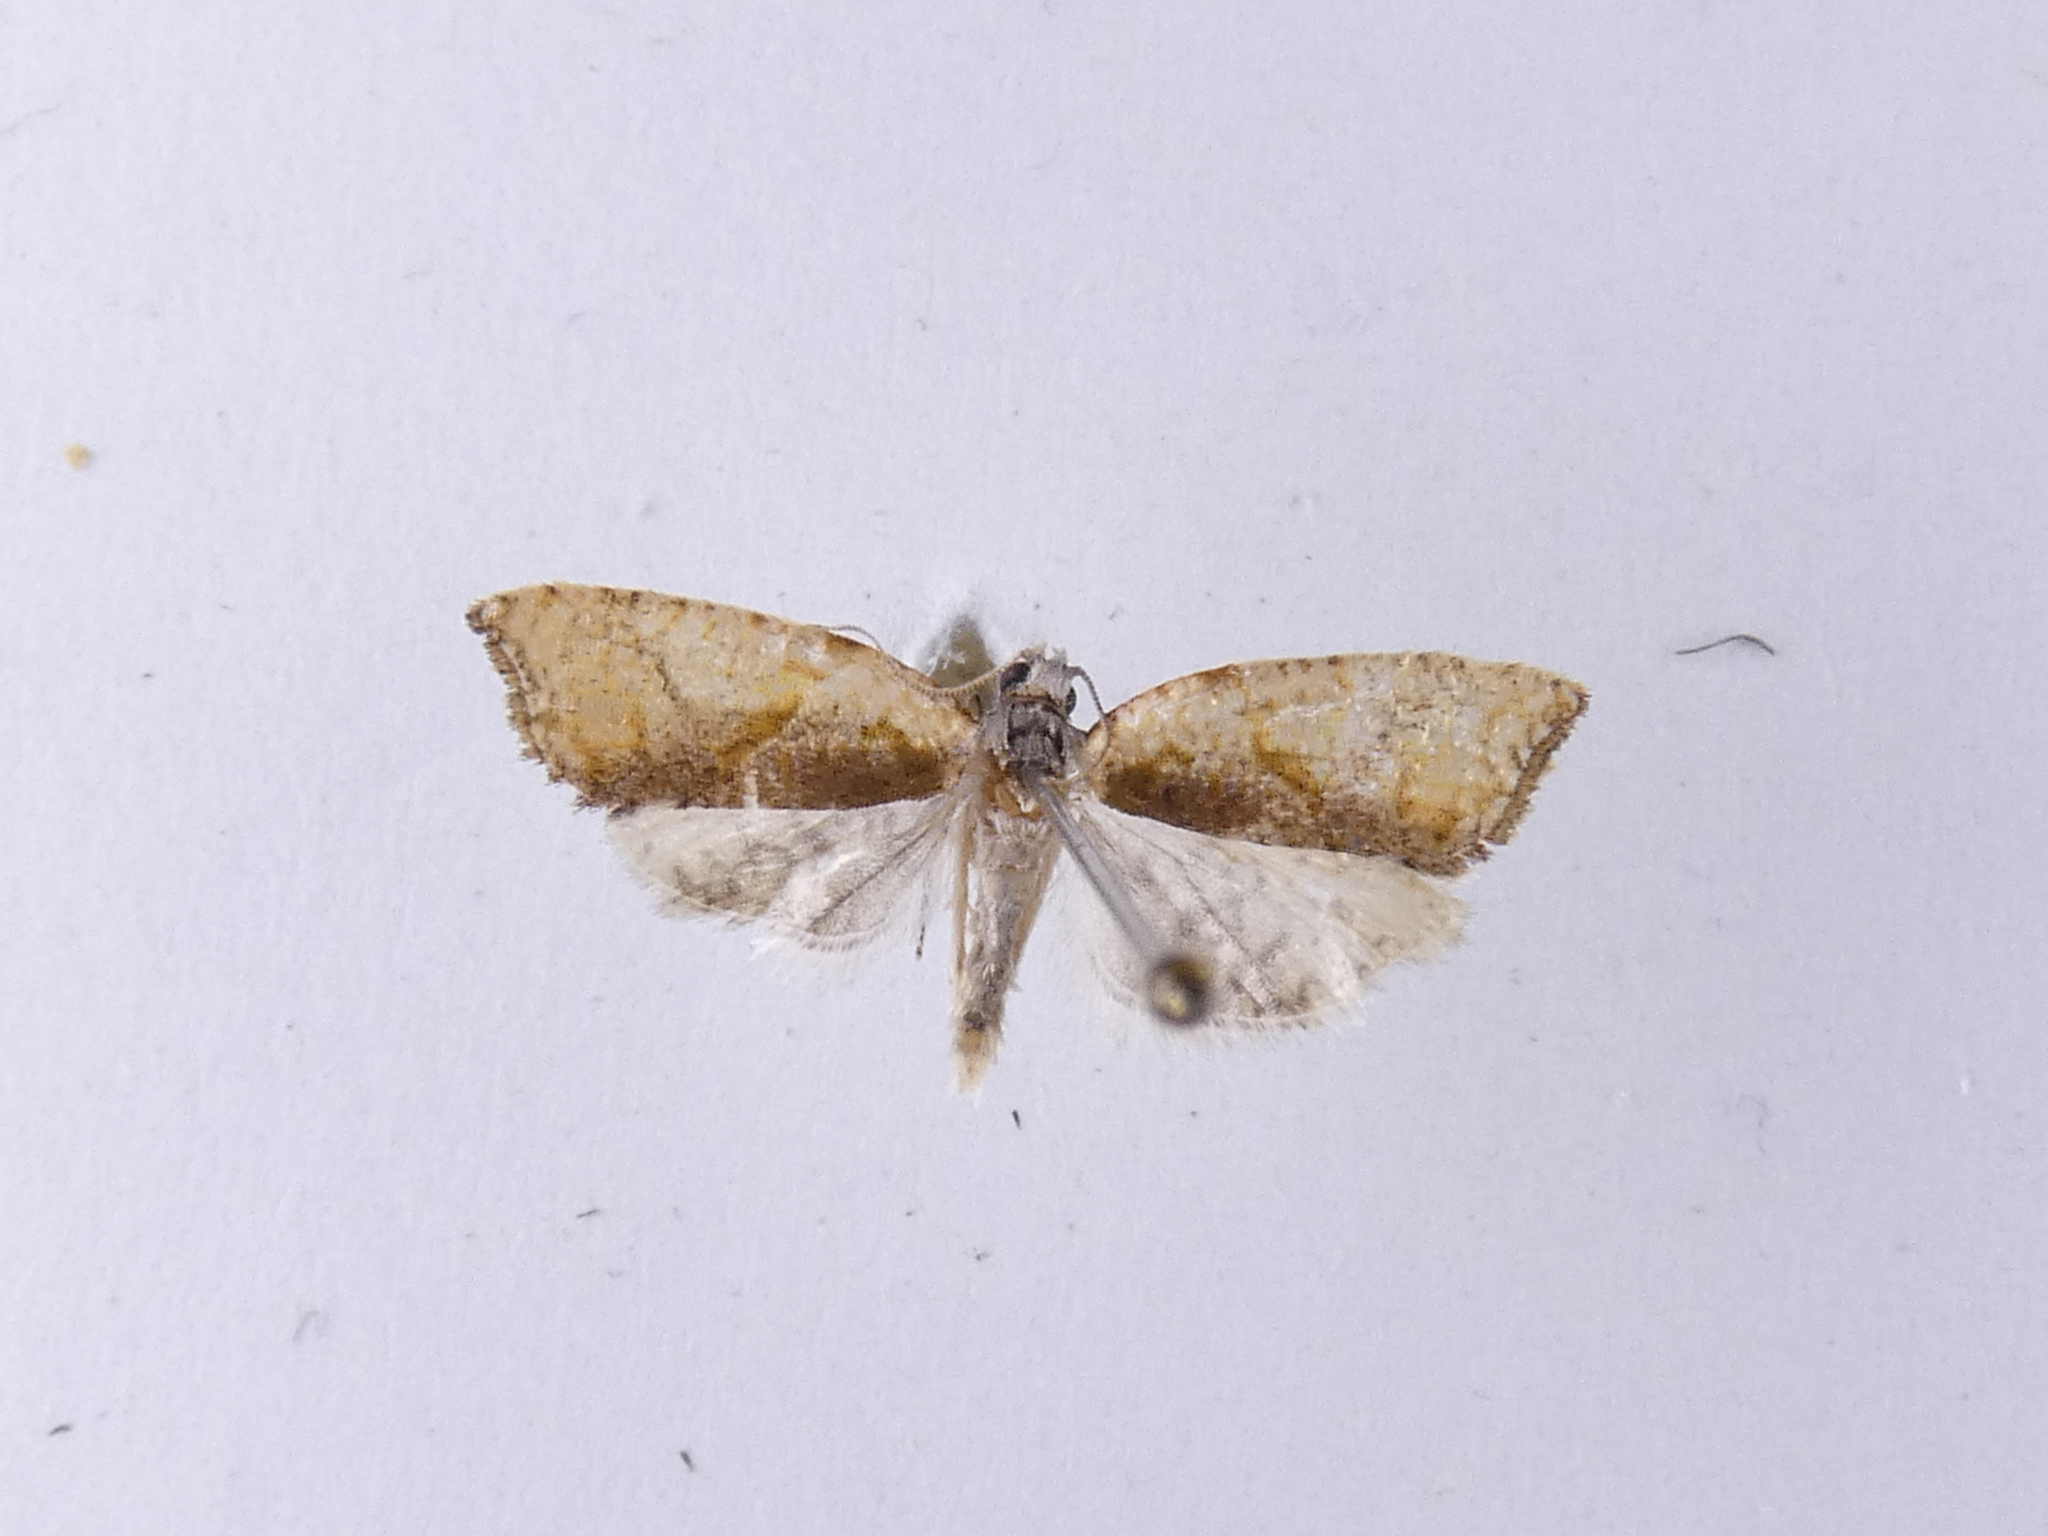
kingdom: Animalia
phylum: Arthropoda
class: Insecta
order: Lepidoptera
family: Tortricidae
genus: Pyrgotis
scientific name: Pyrgotis plagiatana
